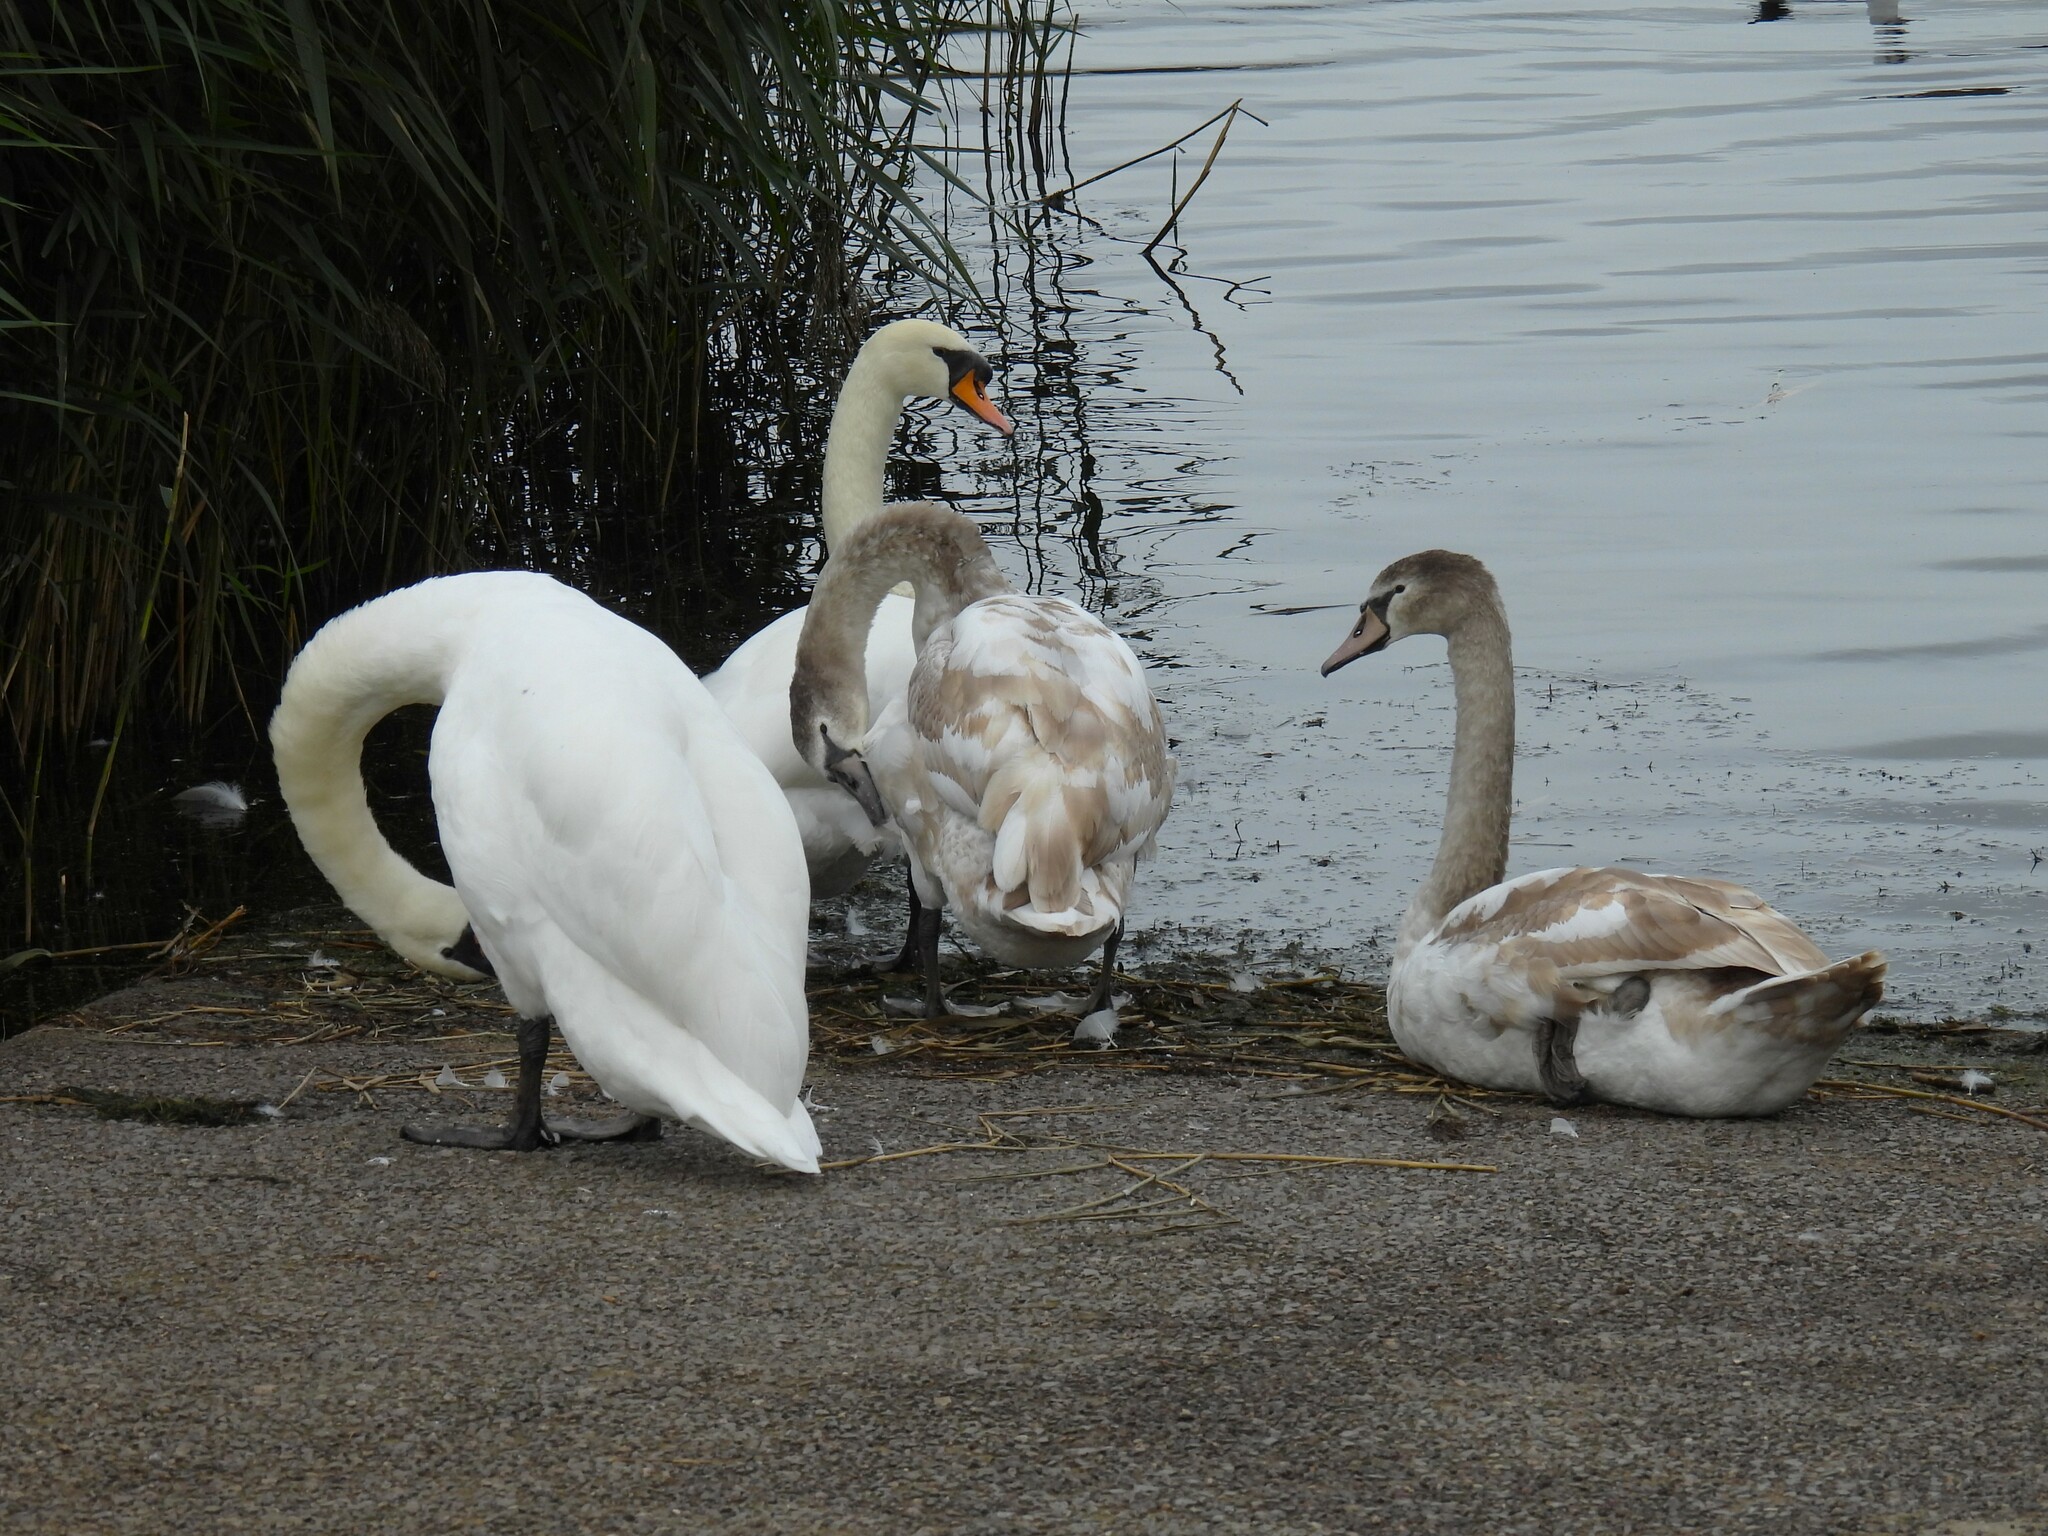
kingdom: Animalia
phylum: Chordata
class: Aves
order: Anseriformes
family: Anatidae
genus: Cygnus
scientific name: Cygnus olor
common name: Mute swan
